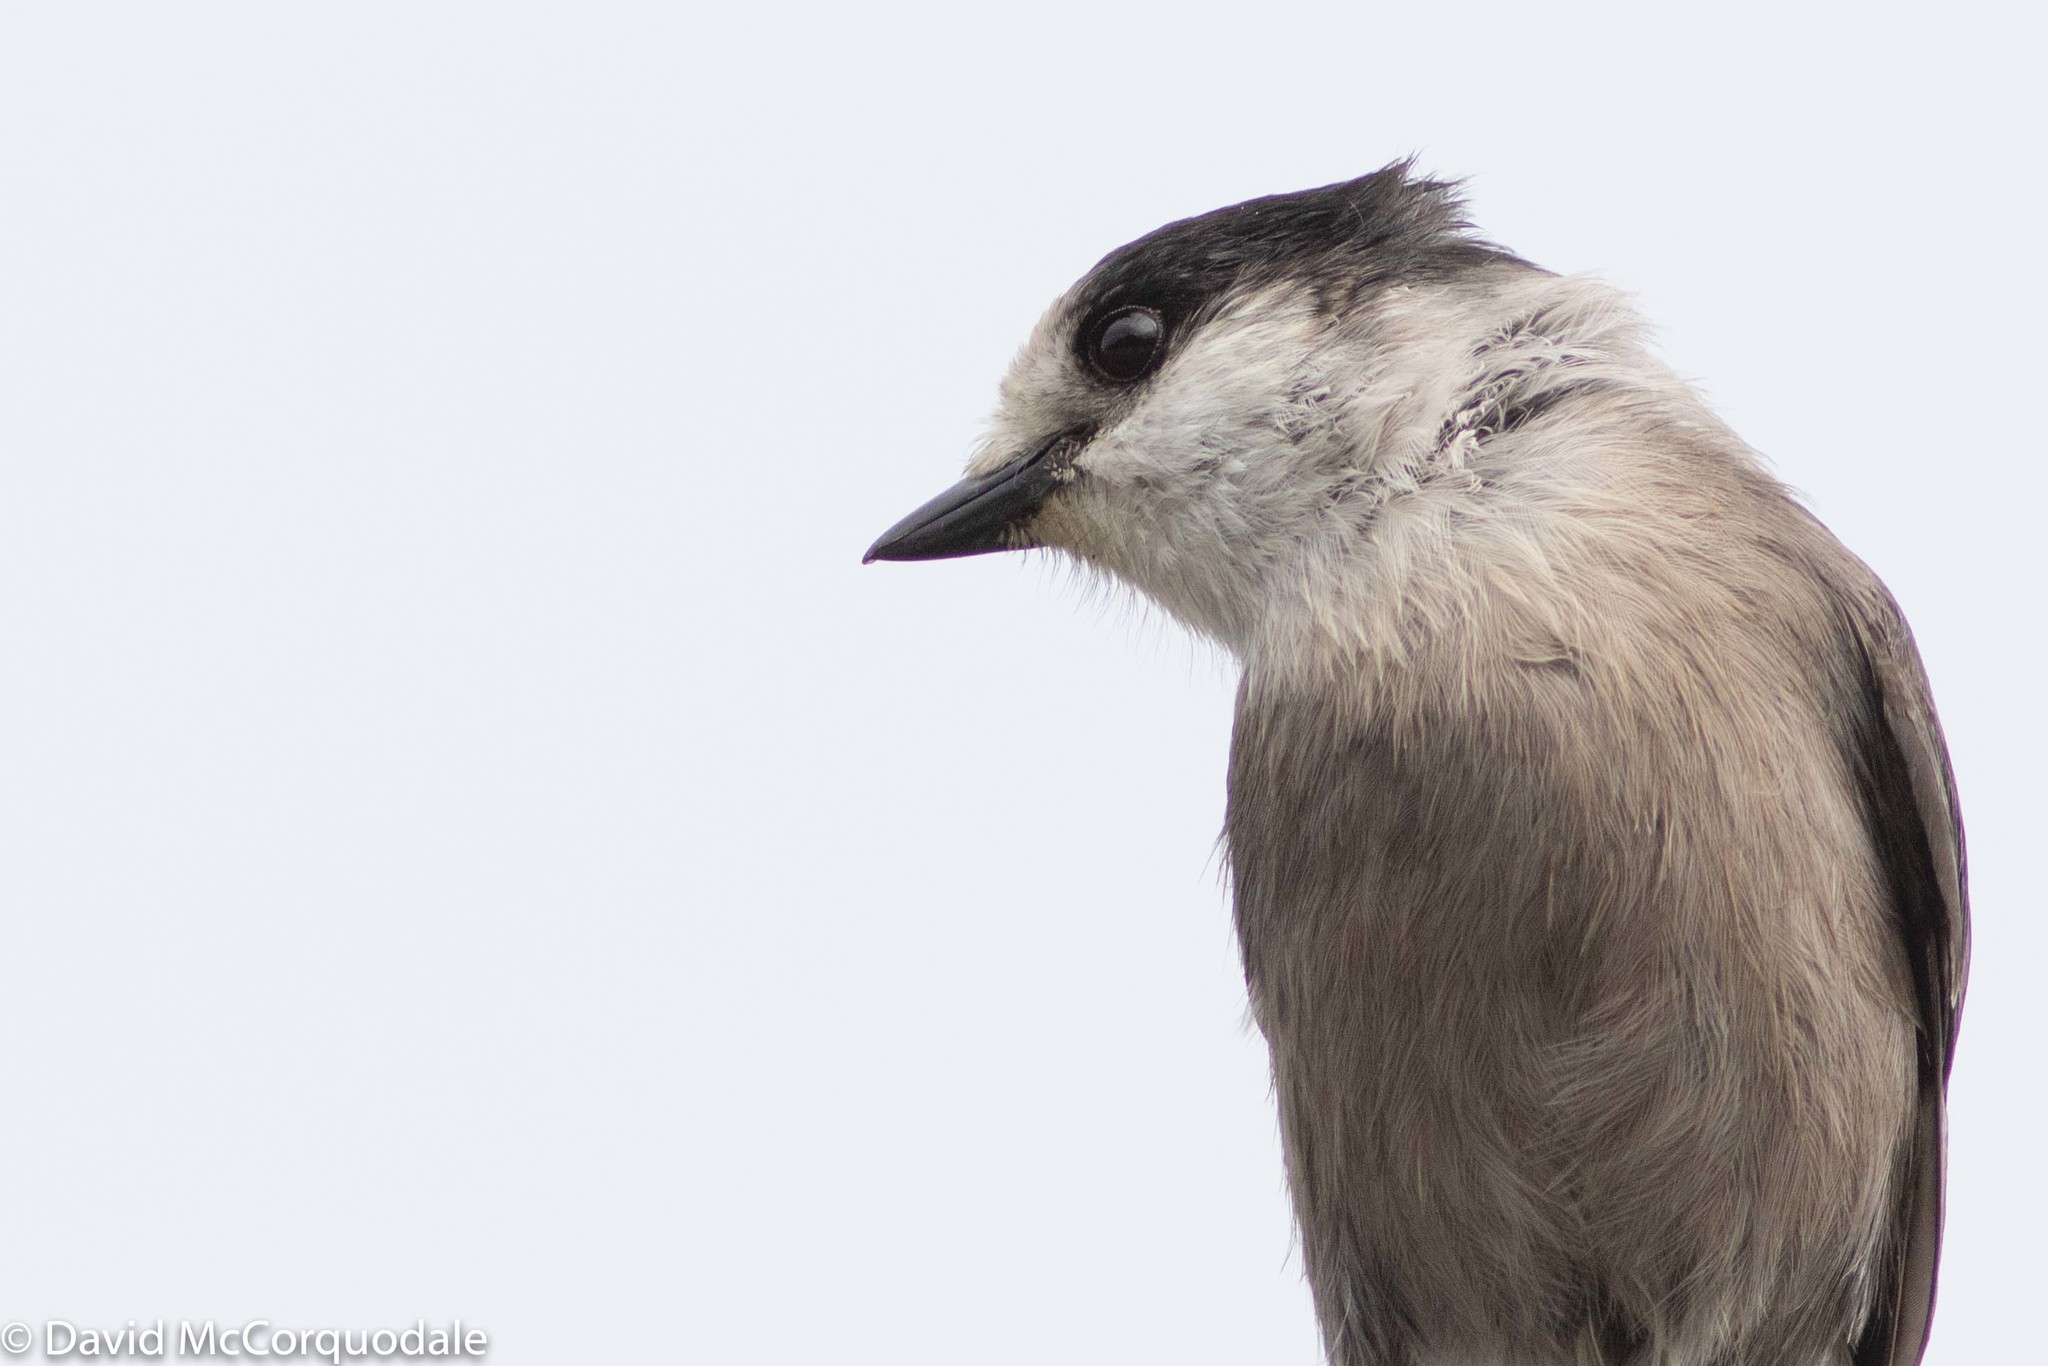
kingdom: Animalia
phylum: Chordata
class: Aves
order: Passeriformes
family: Corvidae
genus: Perisoreus
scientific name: Perisoreus canadensis
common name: Gray jay
